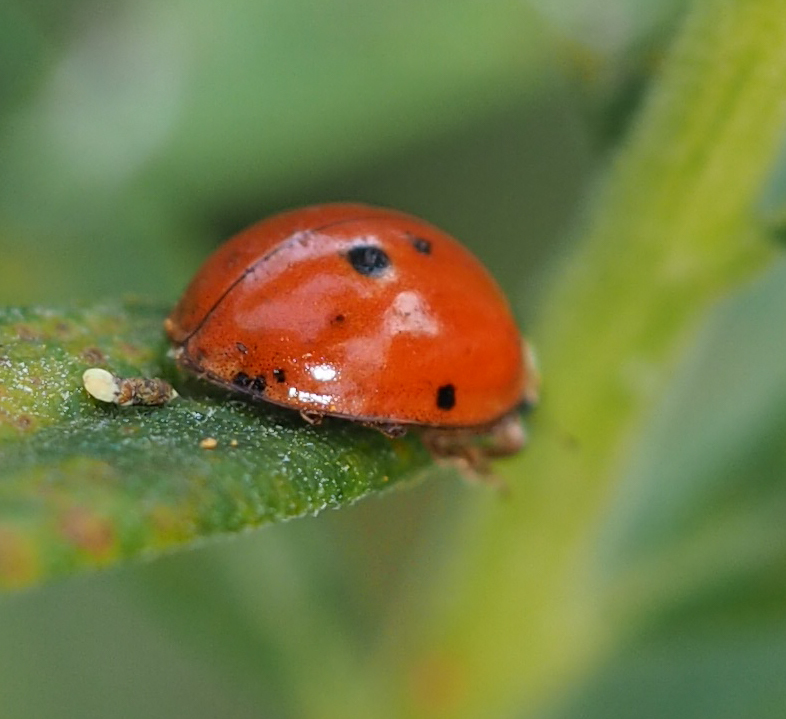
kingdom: Animalia
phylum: Arthropoda
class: Insecta
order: Coleoptera
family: Coccinellidae
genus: Harmonia
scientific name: Harmonia axyridis
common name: Harlequin ladybird
